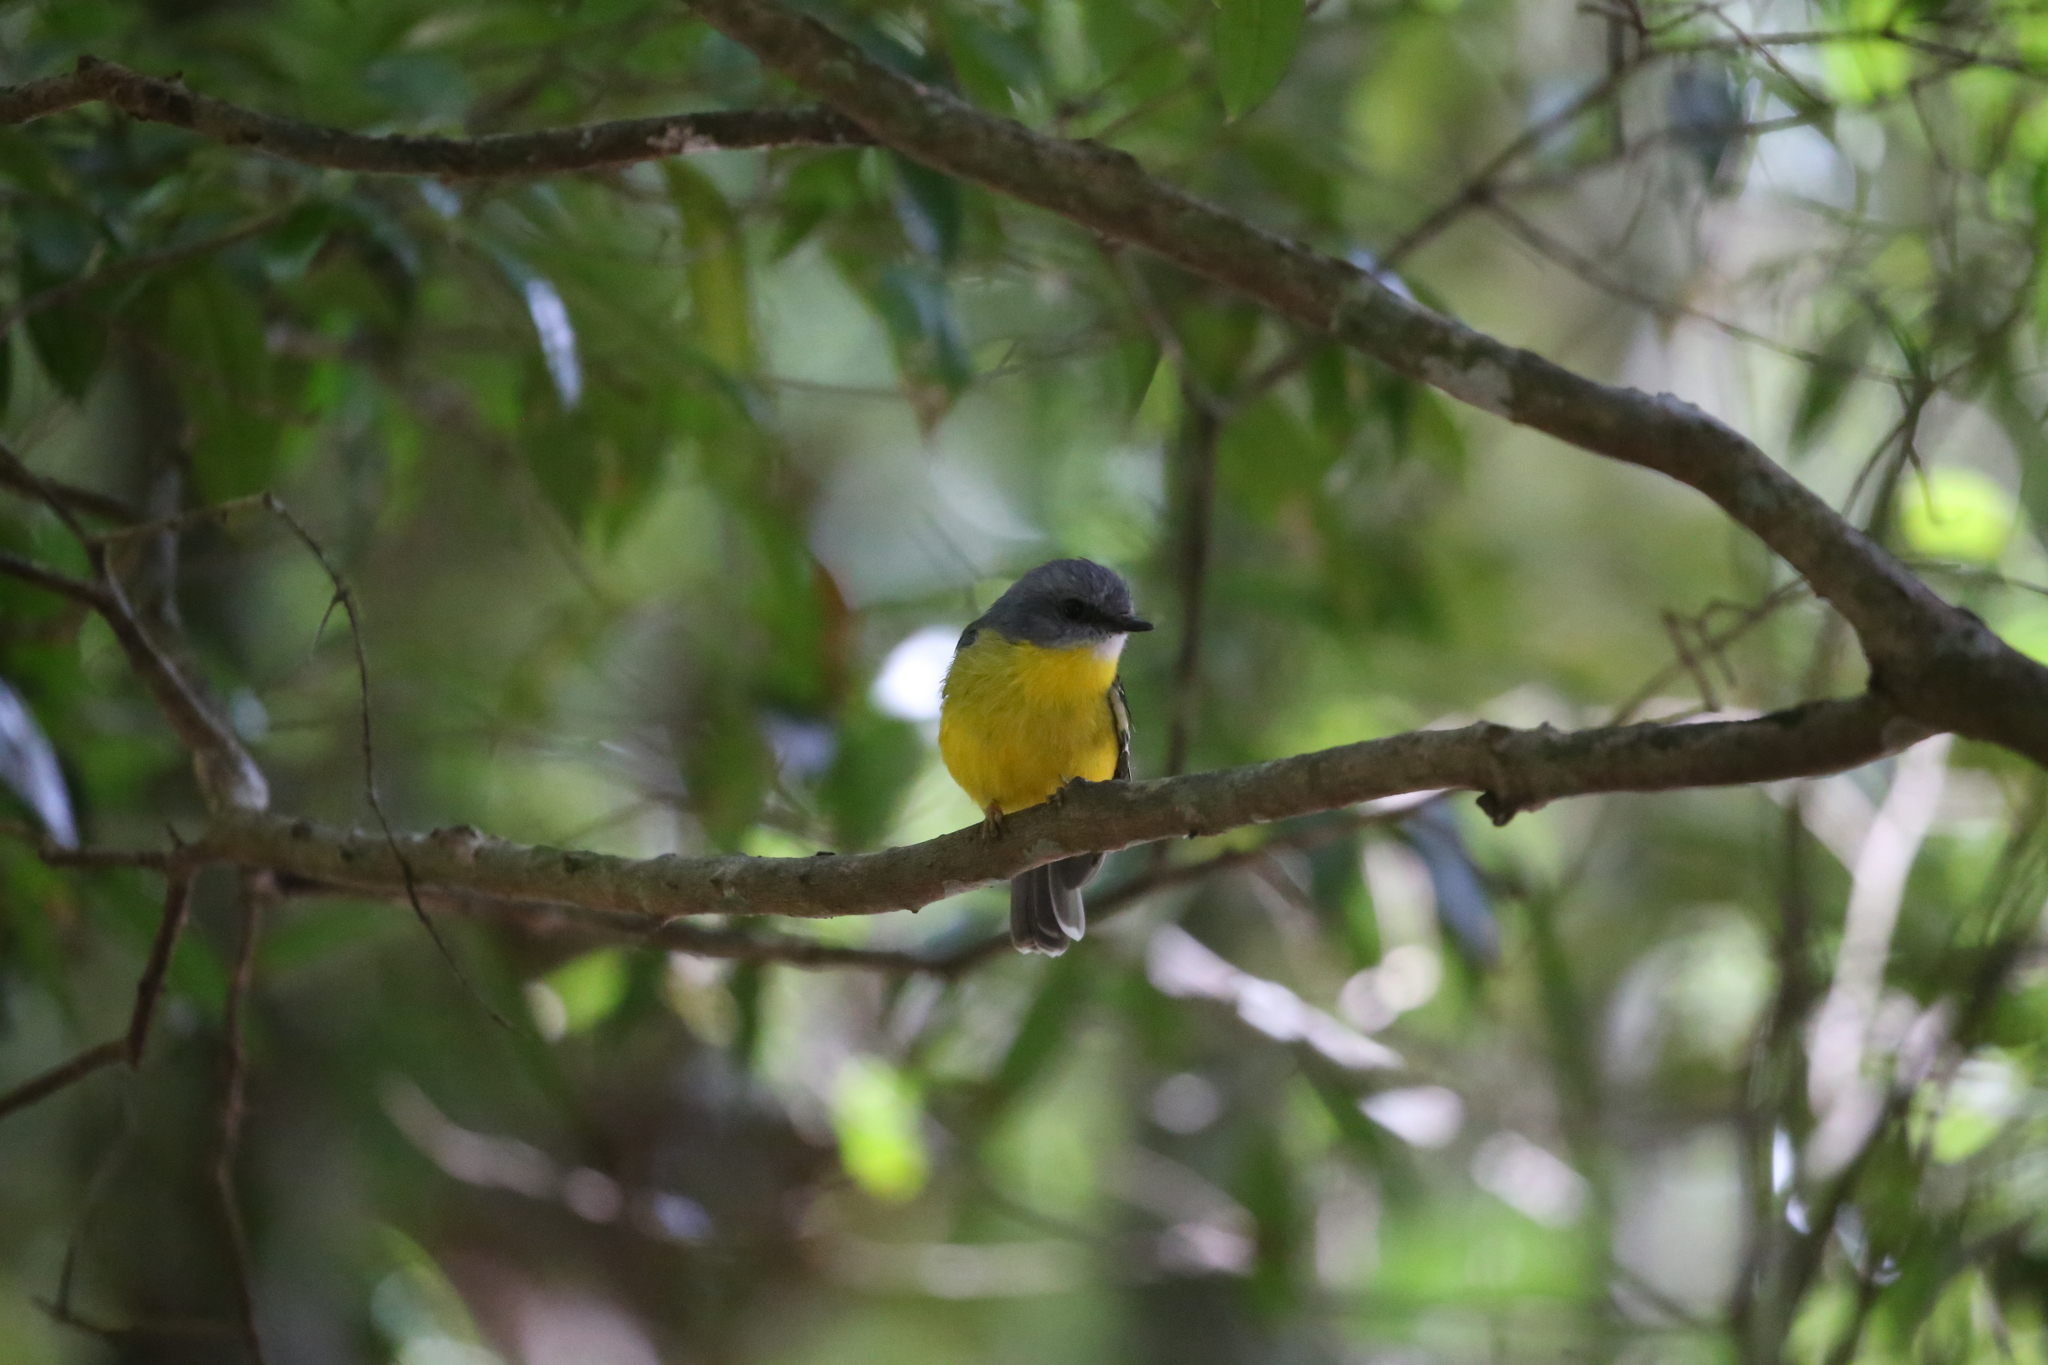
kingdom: Animalia
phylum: Chordata
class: Aves
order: Passeriformes
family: Petroicidae
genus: Eopsaltria
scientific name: Eopsaltria australis
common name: Eastern yellow robin
